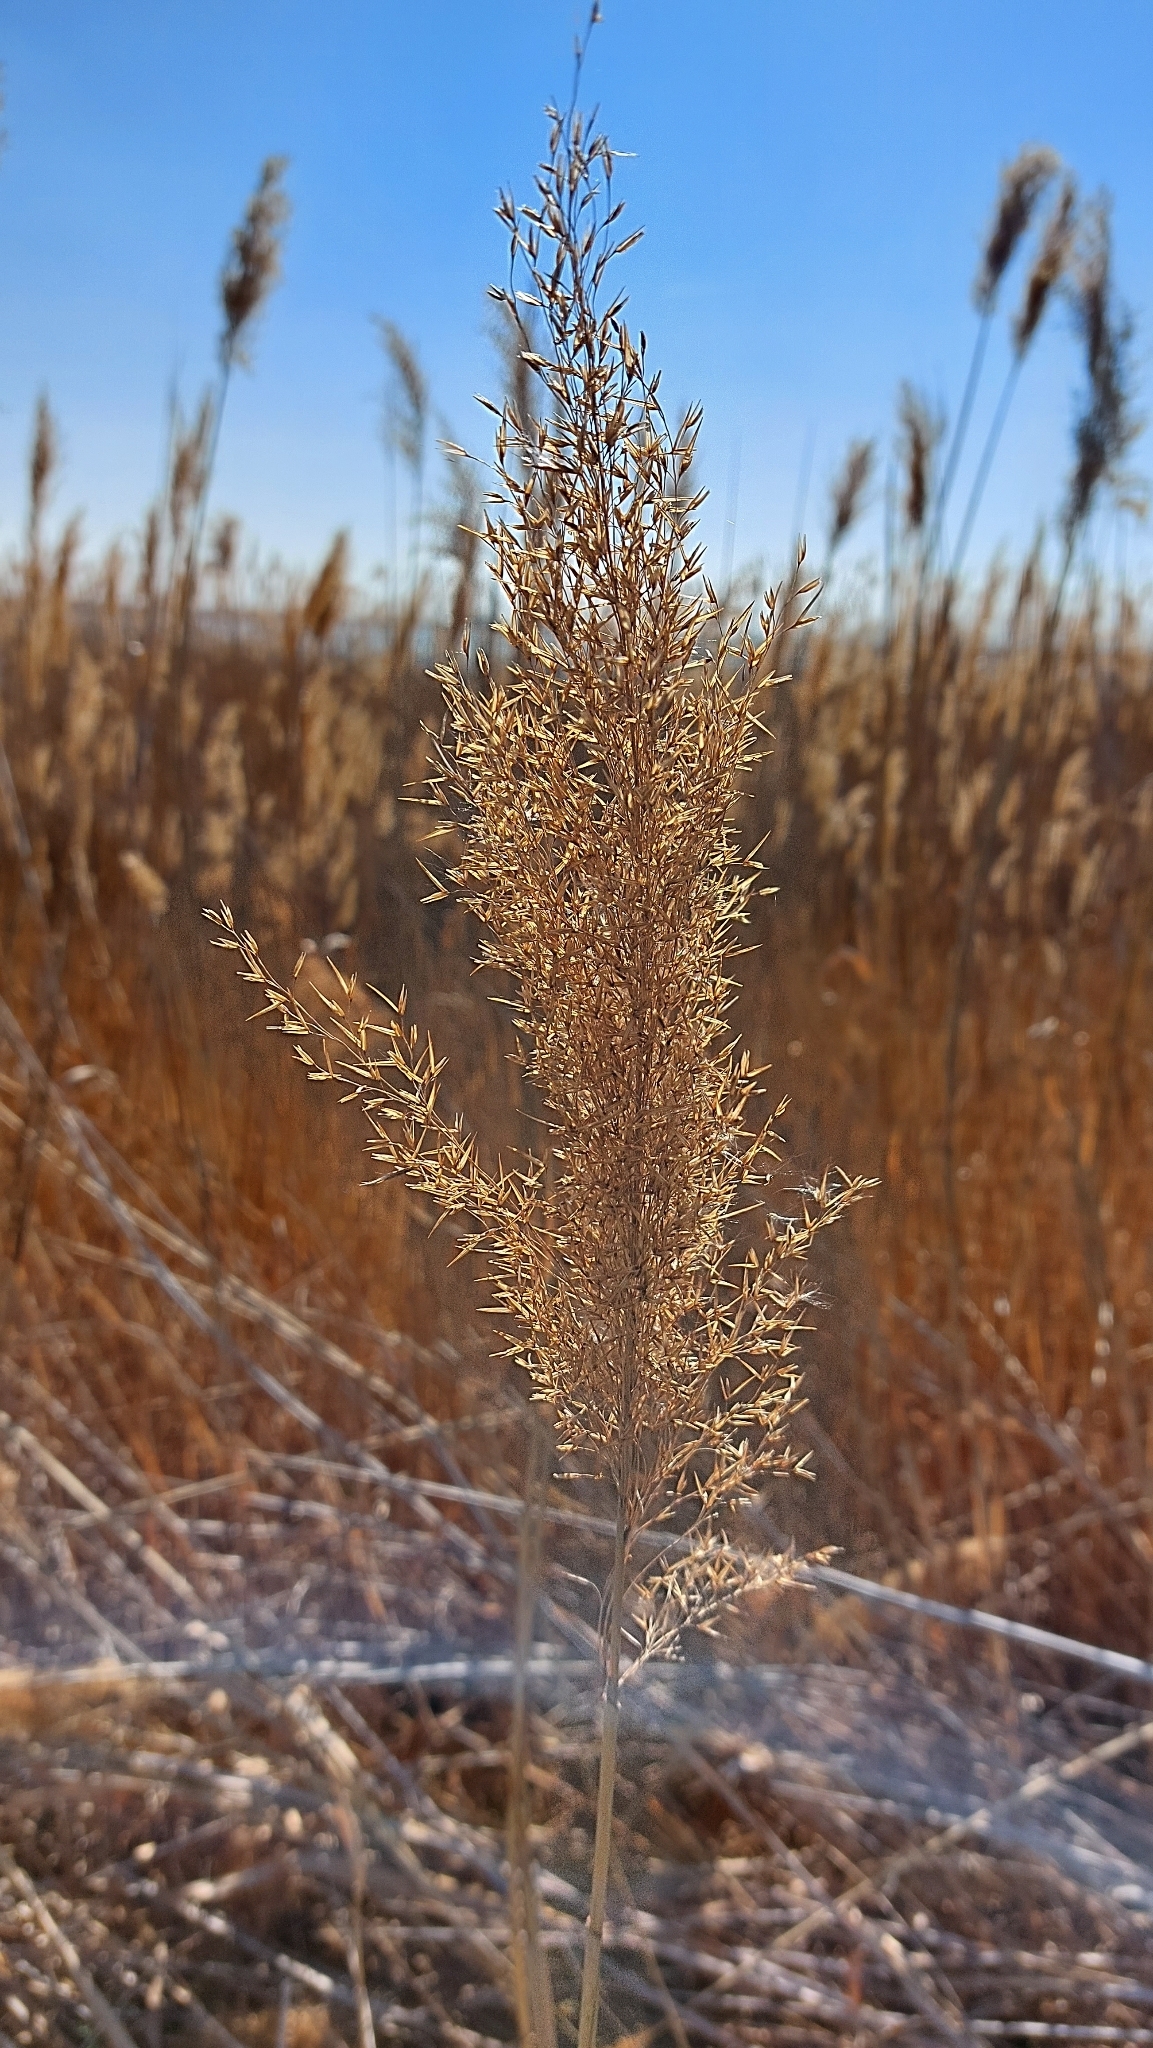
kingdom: Plantae
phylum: Tracheophyta
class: Liliopsida
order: Poales
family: Poaceae
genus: Phragmites
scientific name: Phragmites australis
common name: Common reed
